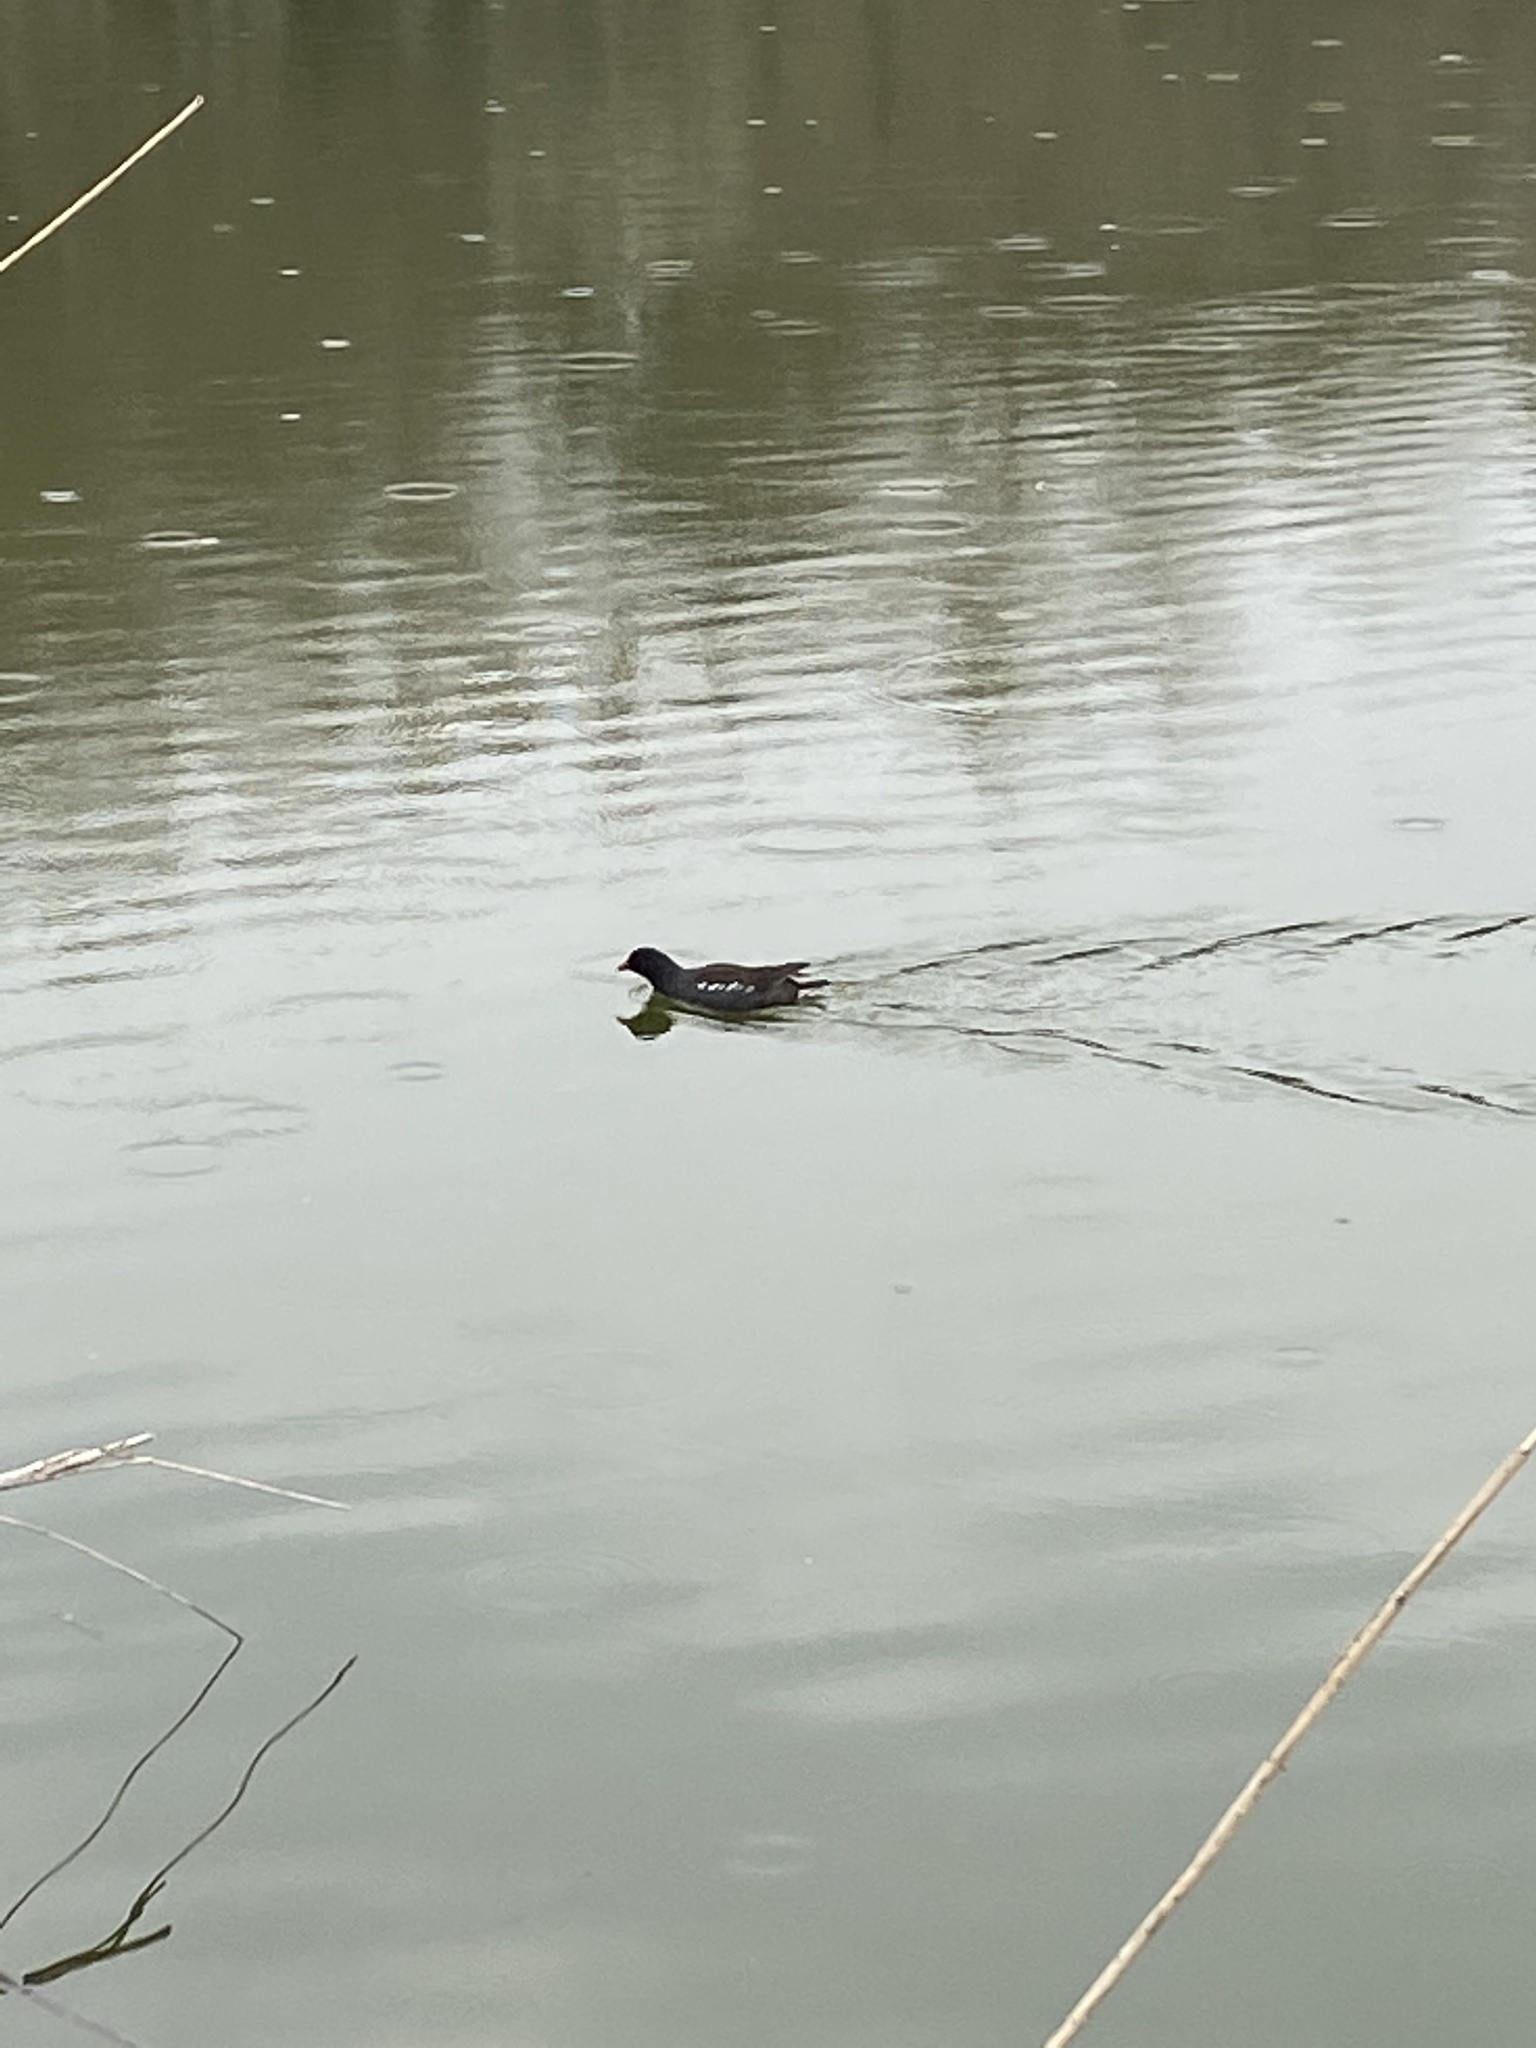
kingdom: Animalia
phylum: Chordata
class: Aves
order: Gruiformes
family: Rallidae
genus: Gallinula
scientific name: Gallinula chloropus
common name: Common moorhen
